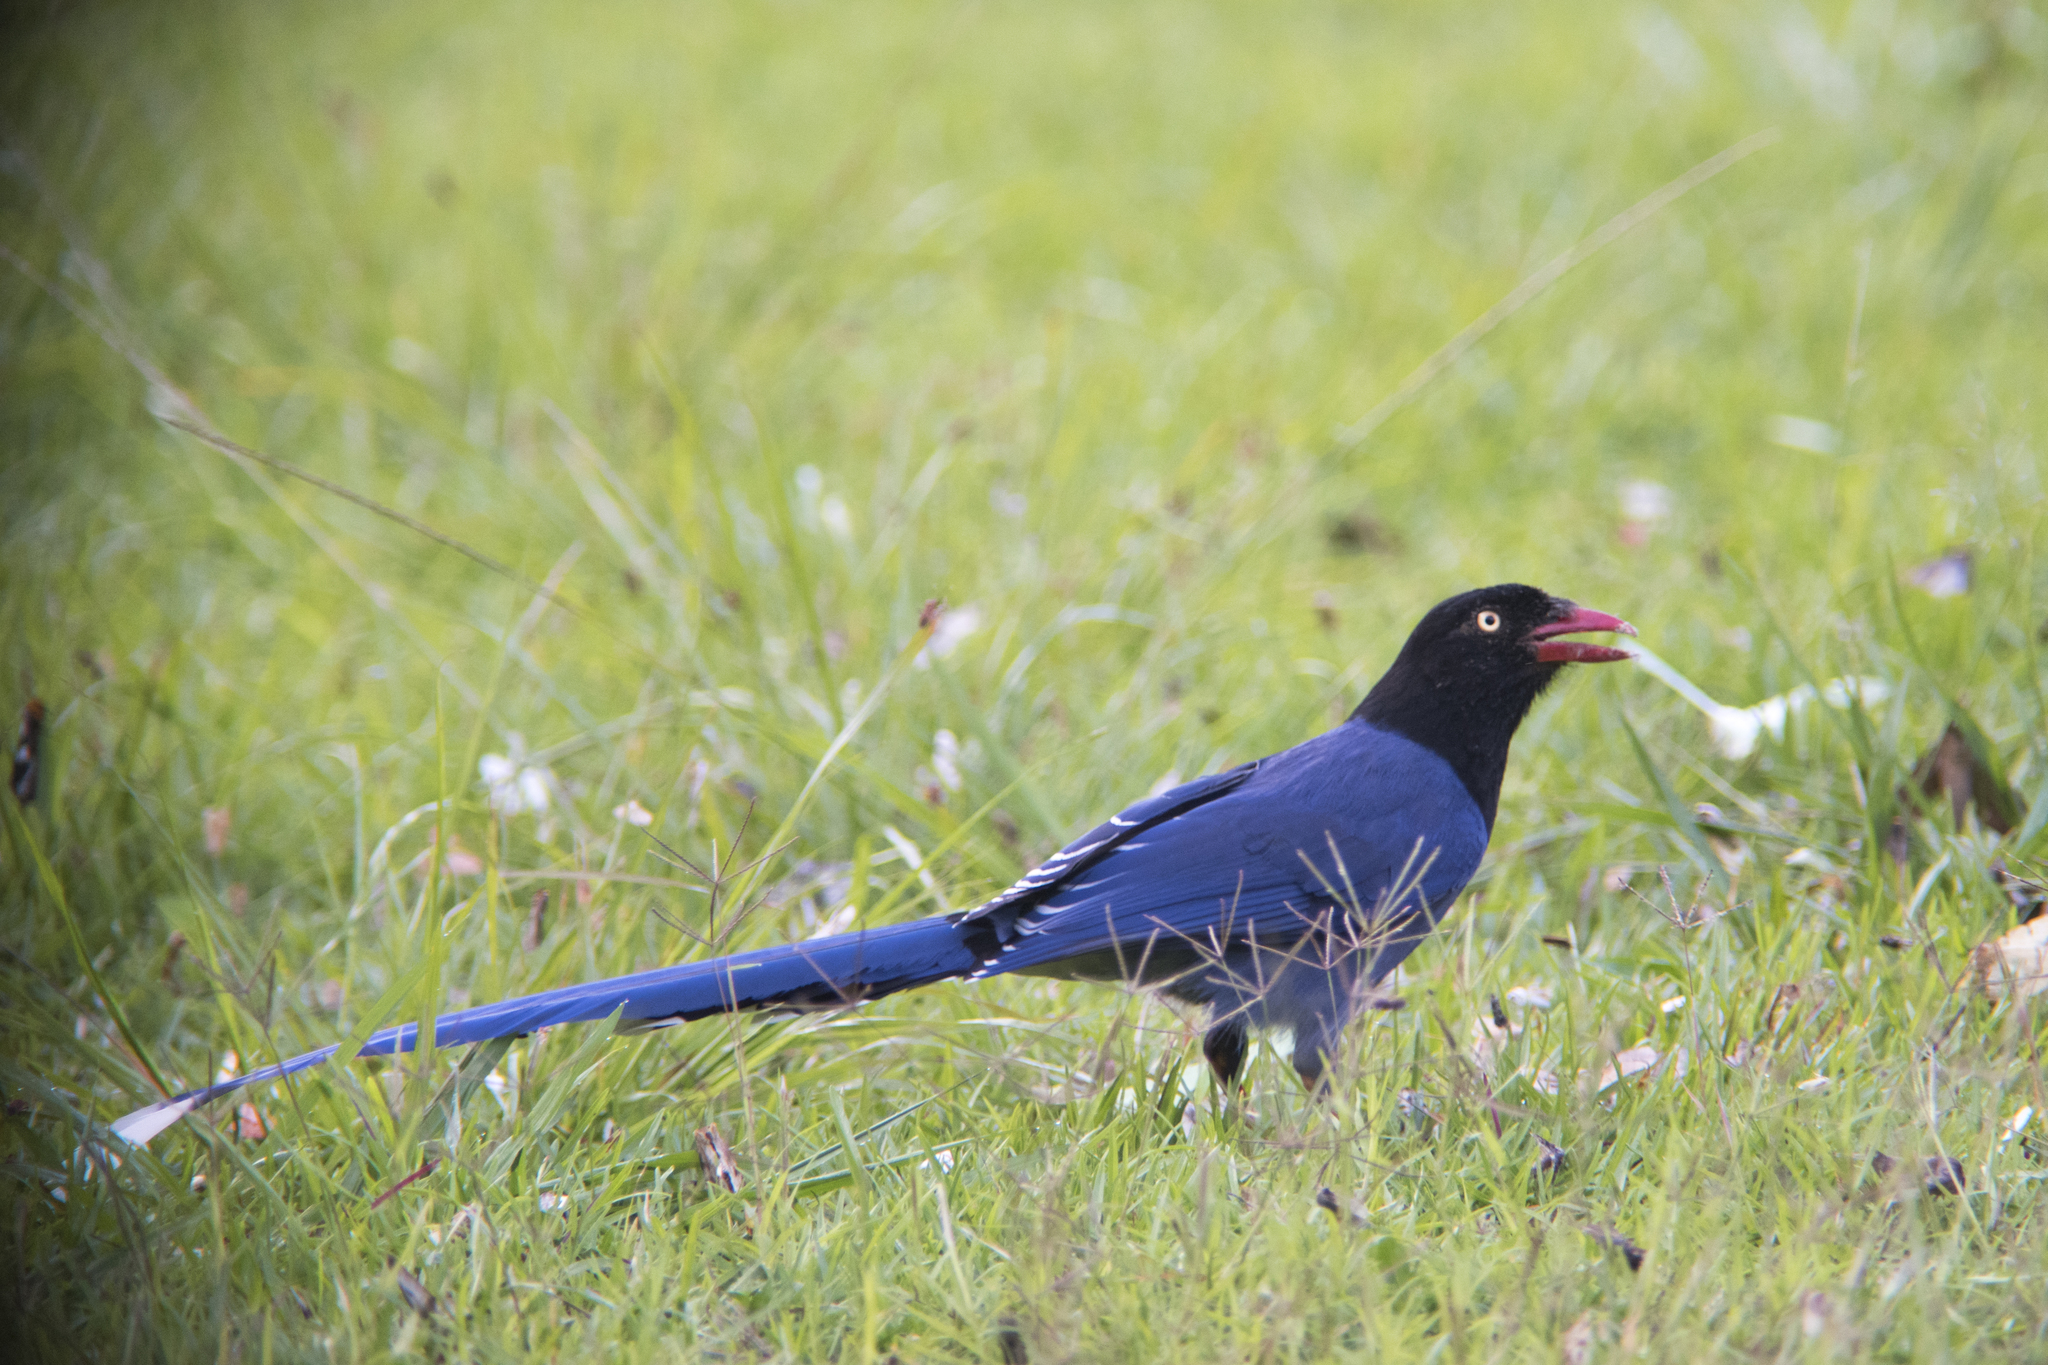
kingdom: Animalia
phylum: Chordata
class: Aves
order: Passeriformes
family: Corvidae
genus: Urocissa
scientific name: Urocissa caerulea
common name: Taiwan blue magpie
